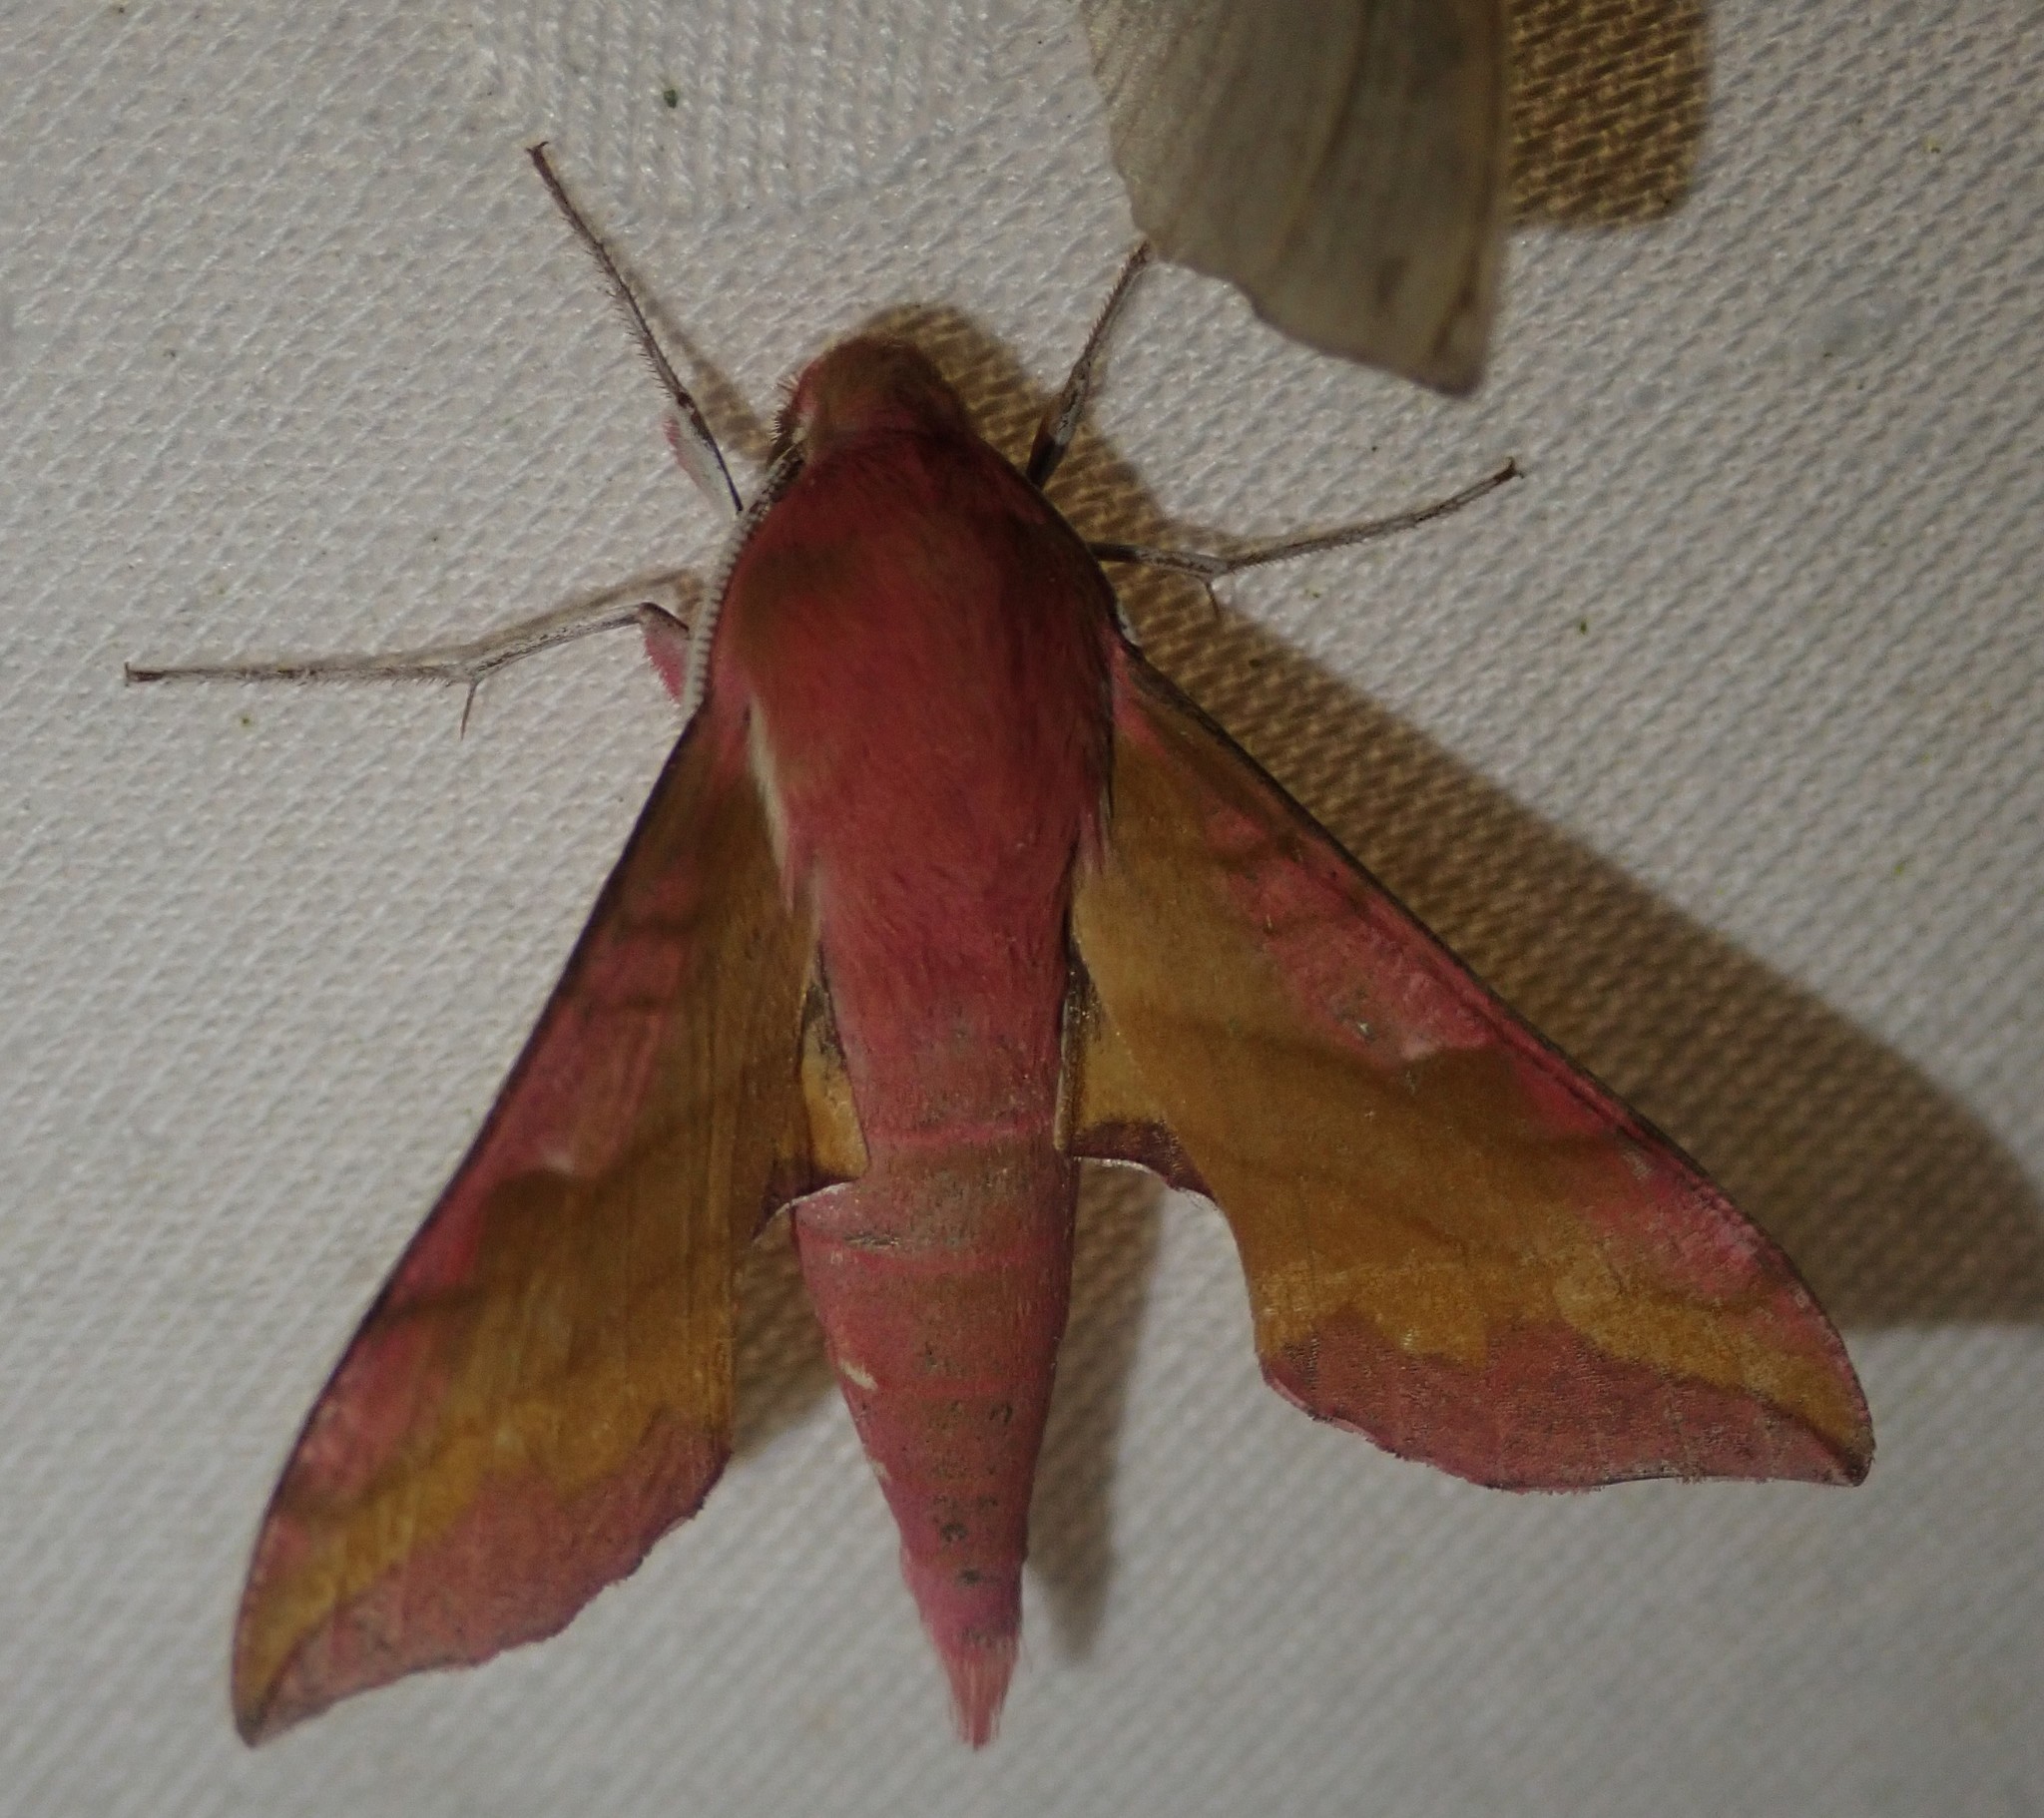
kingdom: Animalia
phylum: Arthropoda
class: Insecta
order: Lepidoptera
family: Sphingidae
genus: Deilephila
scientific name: Deilephila porcellus
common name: Small elephant hawk-moth
